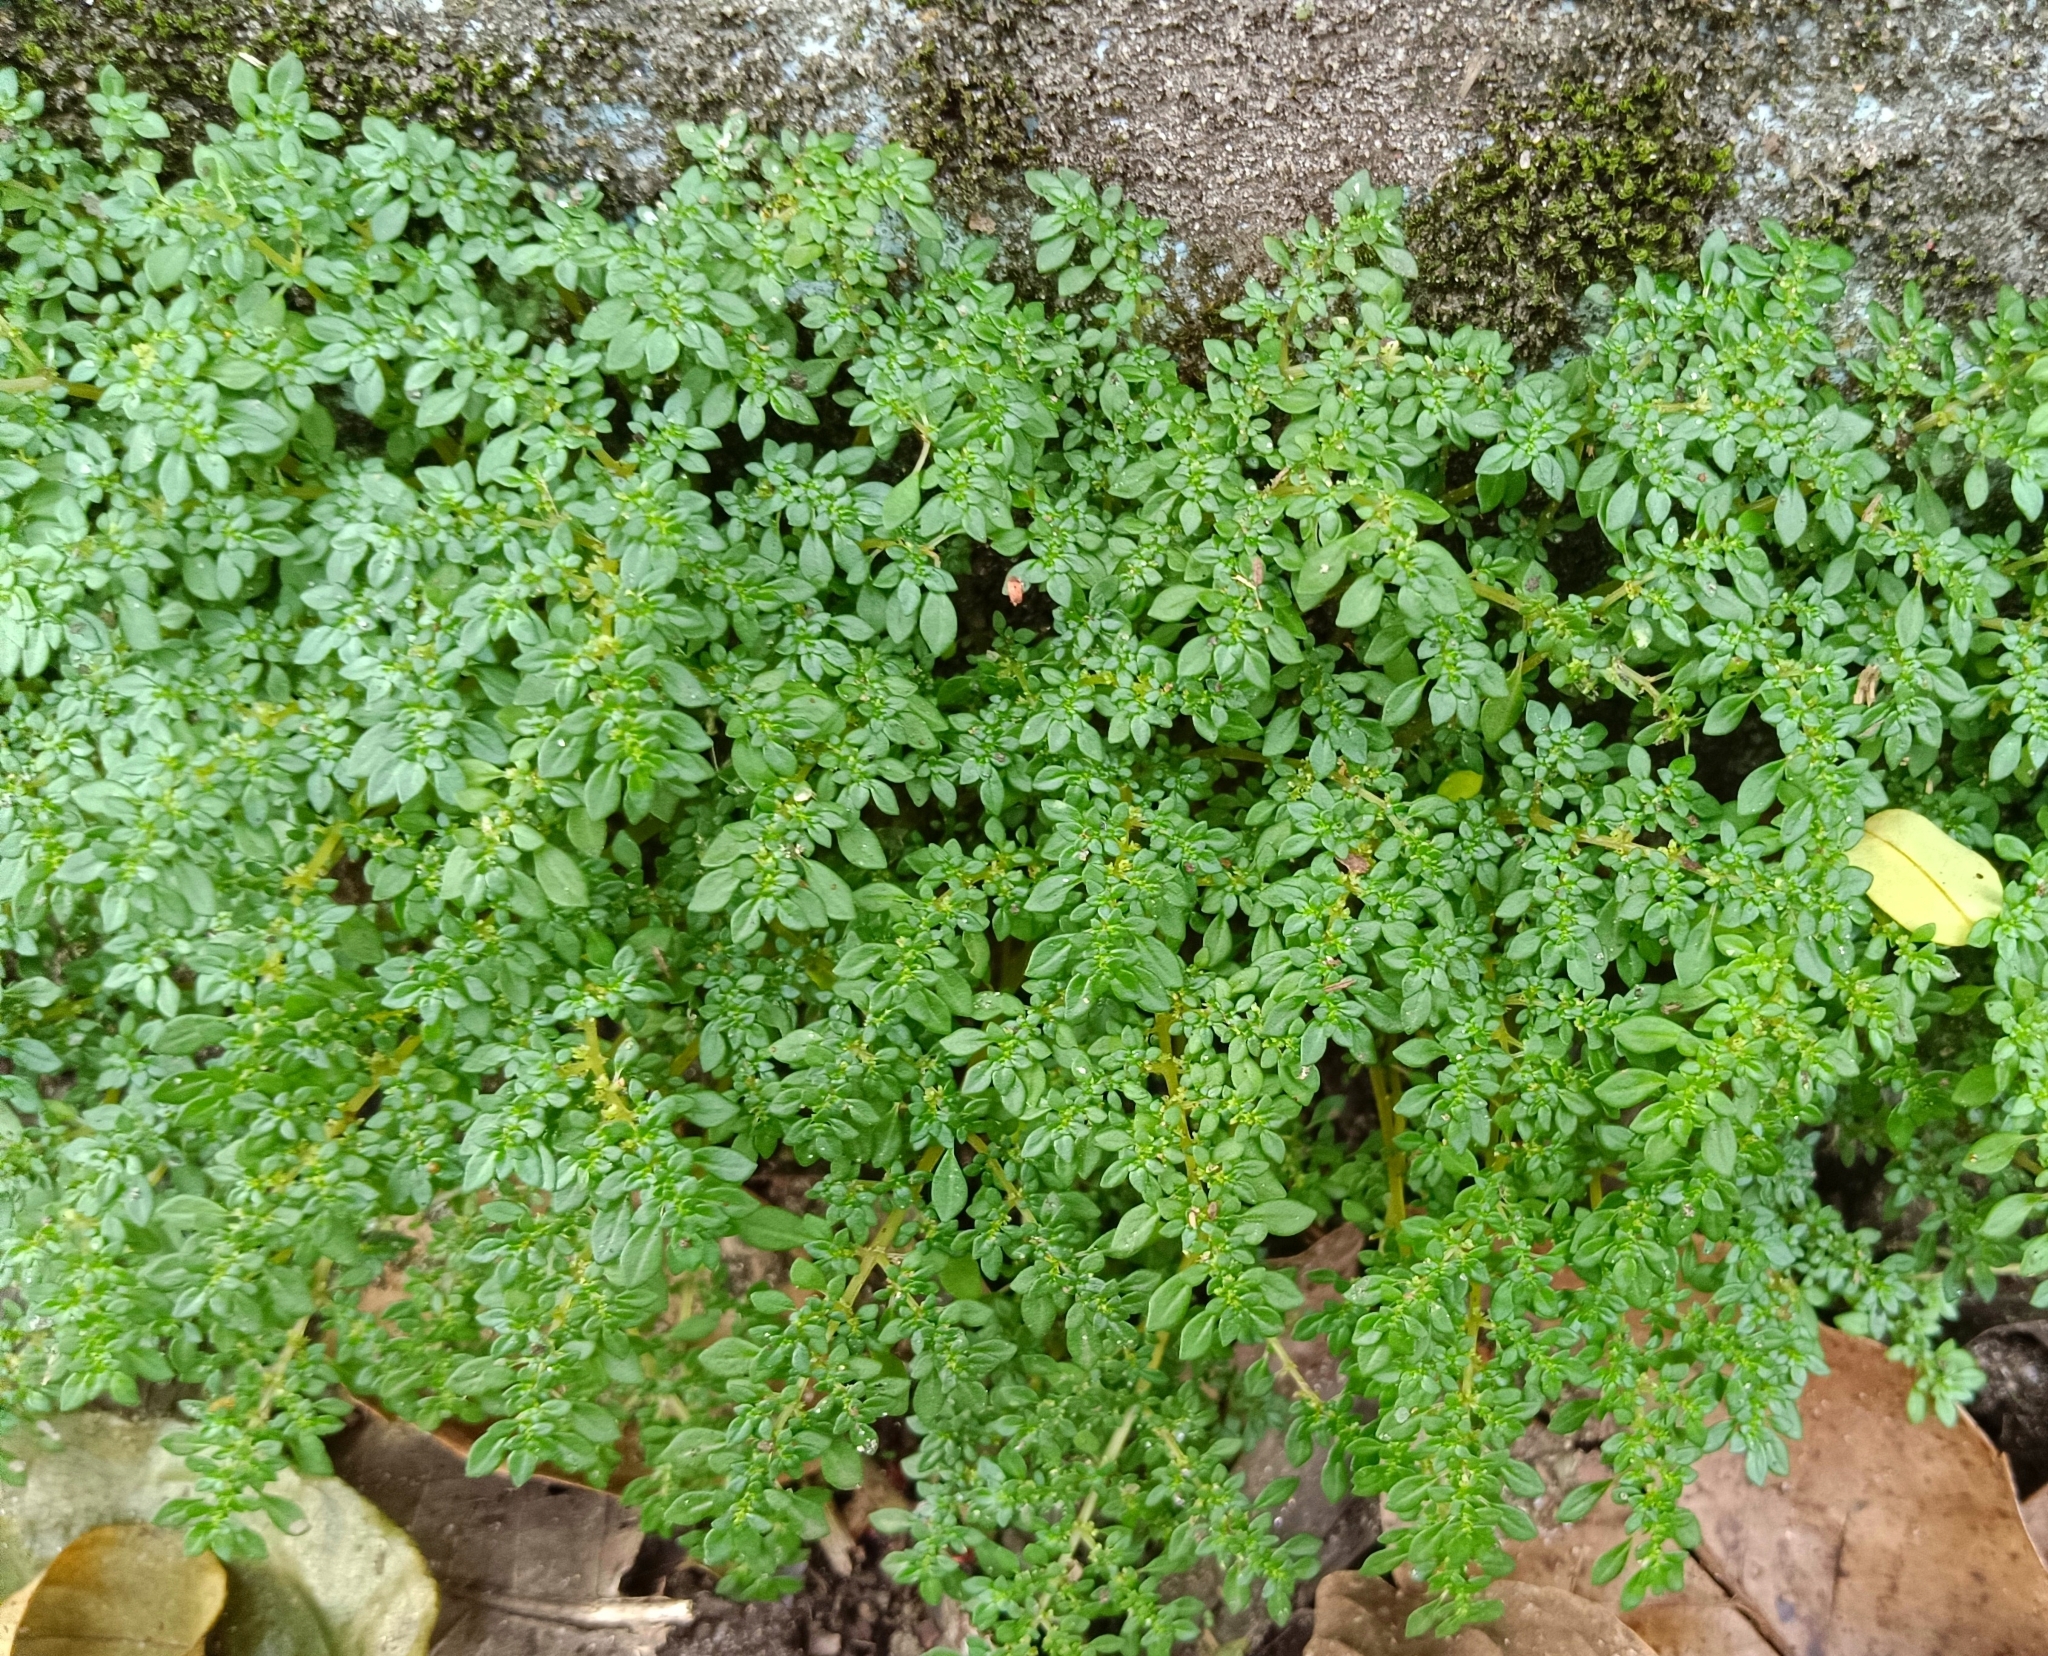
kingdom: Plantae
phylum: Tracheophyta
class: Magnoliopsida
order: Rosales
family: Urticaceae
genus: Pilea
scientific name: Pilea microphylla
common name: Artillery-plant
